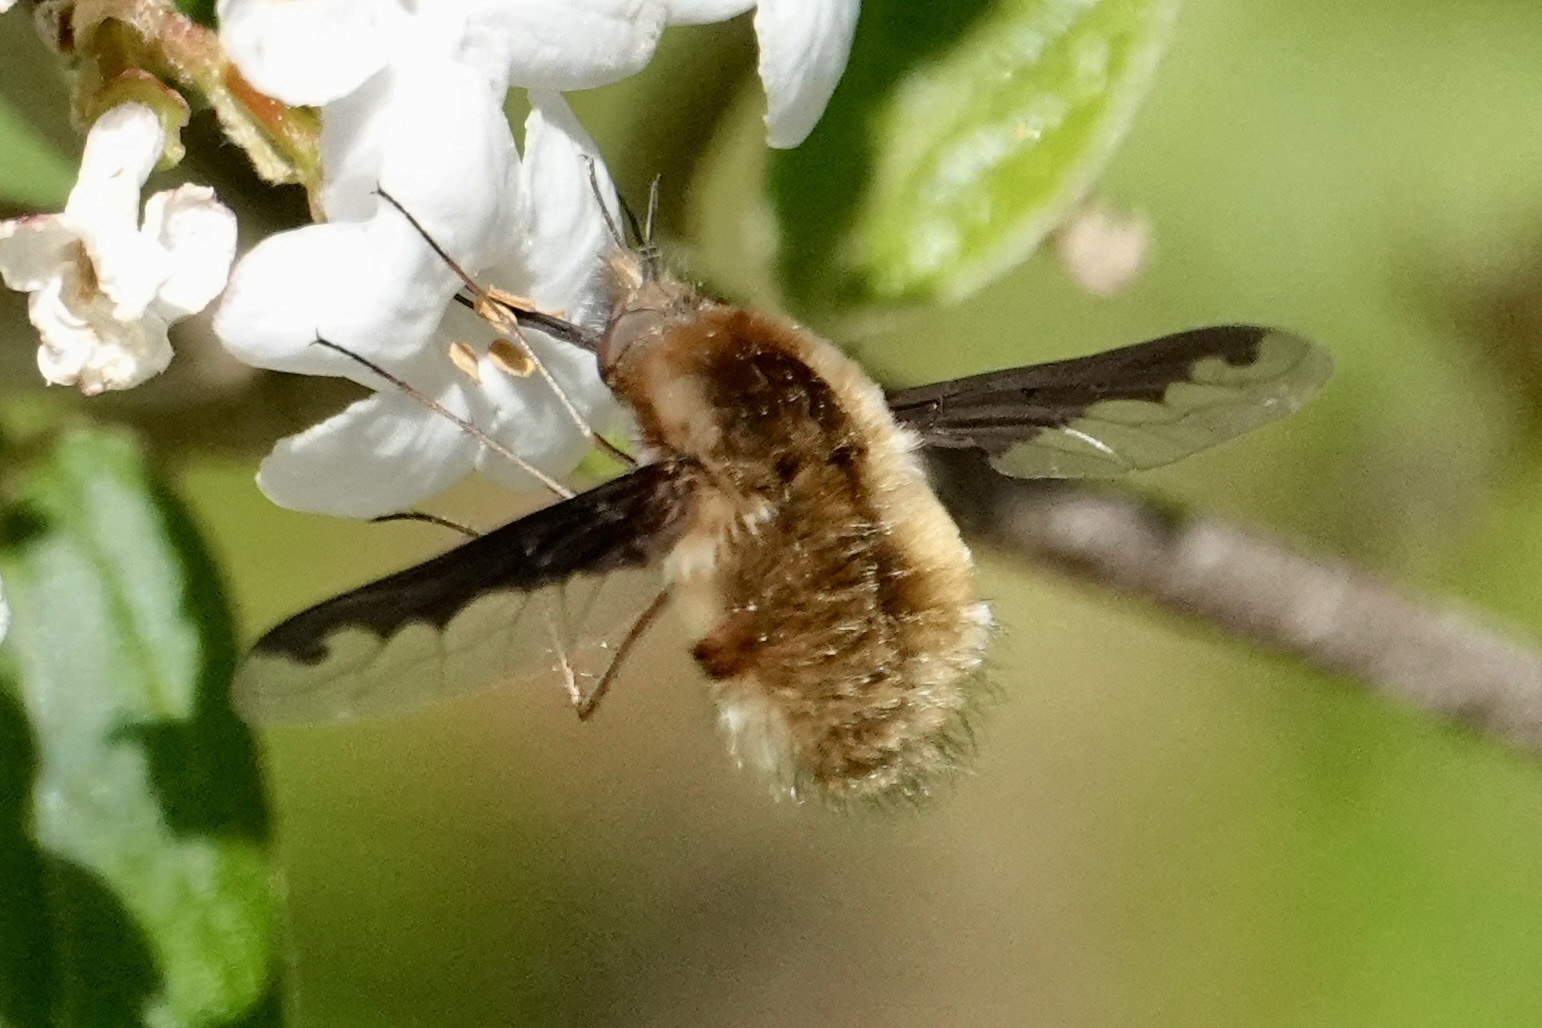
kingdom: Animalia
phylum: Arthropoda
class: Insecta
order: Diptera
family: Bombyliidae
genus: Bombylius
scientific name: Bombylius major
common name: Bee fly
